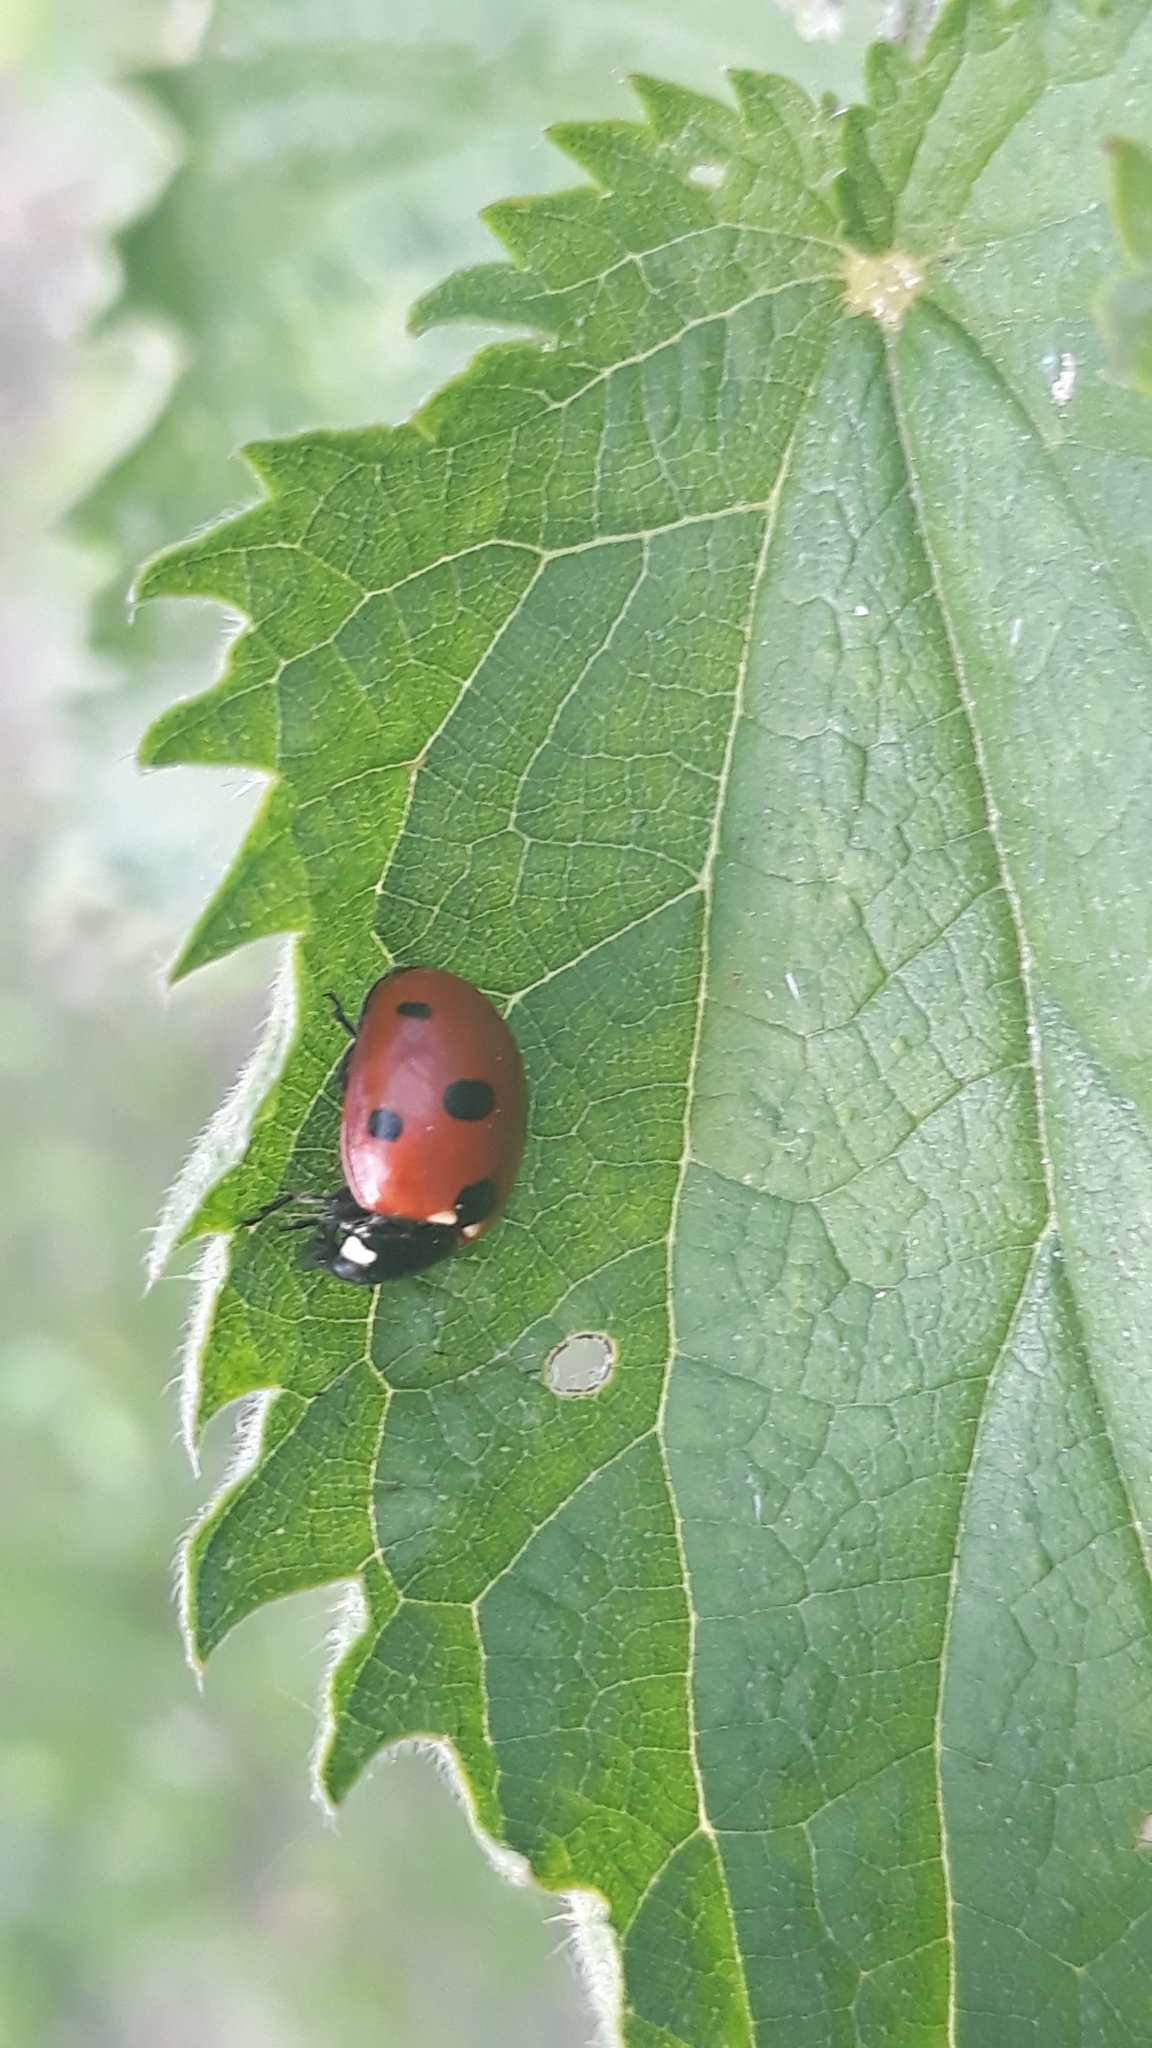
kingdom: Animalia
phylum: Arthropoda
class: Insecta
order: Coleoptera
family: Coccinellidae
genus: Coccinella
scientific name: Coccinella septempunctata
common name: Sevenspotted lady beetle
